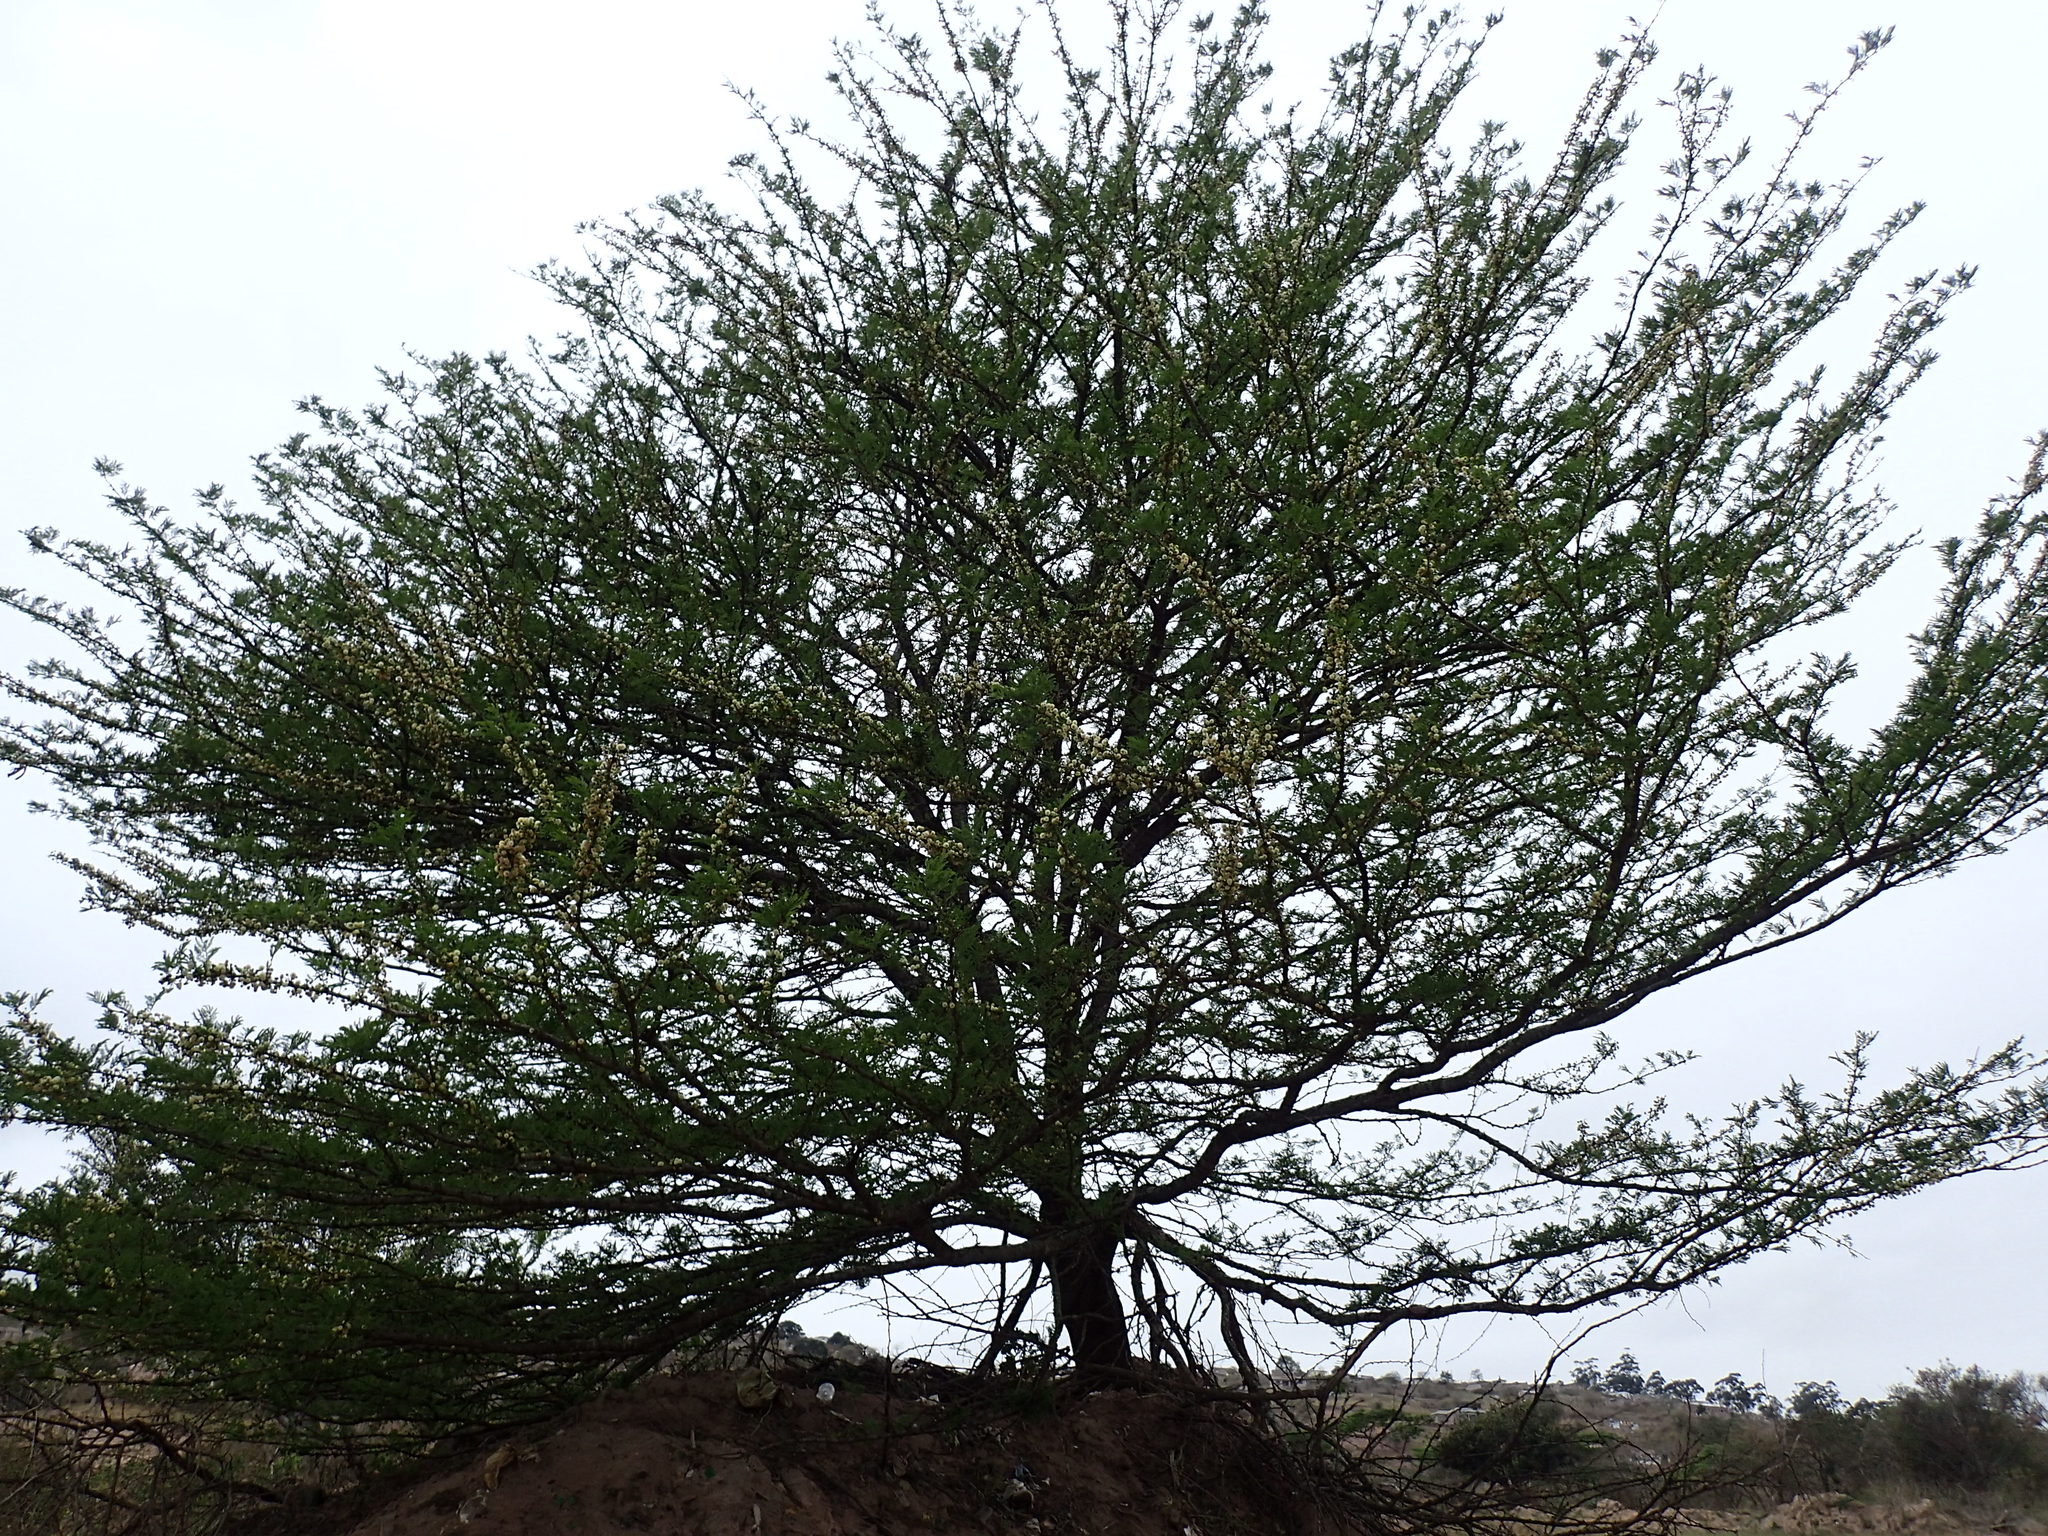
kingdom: Plantae
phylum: Tracheophyta
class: Magnoliopsida
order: Fabales
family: Fabaceae
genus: Vachellia
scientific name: Vachellia robusta
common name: Ankle thorn
